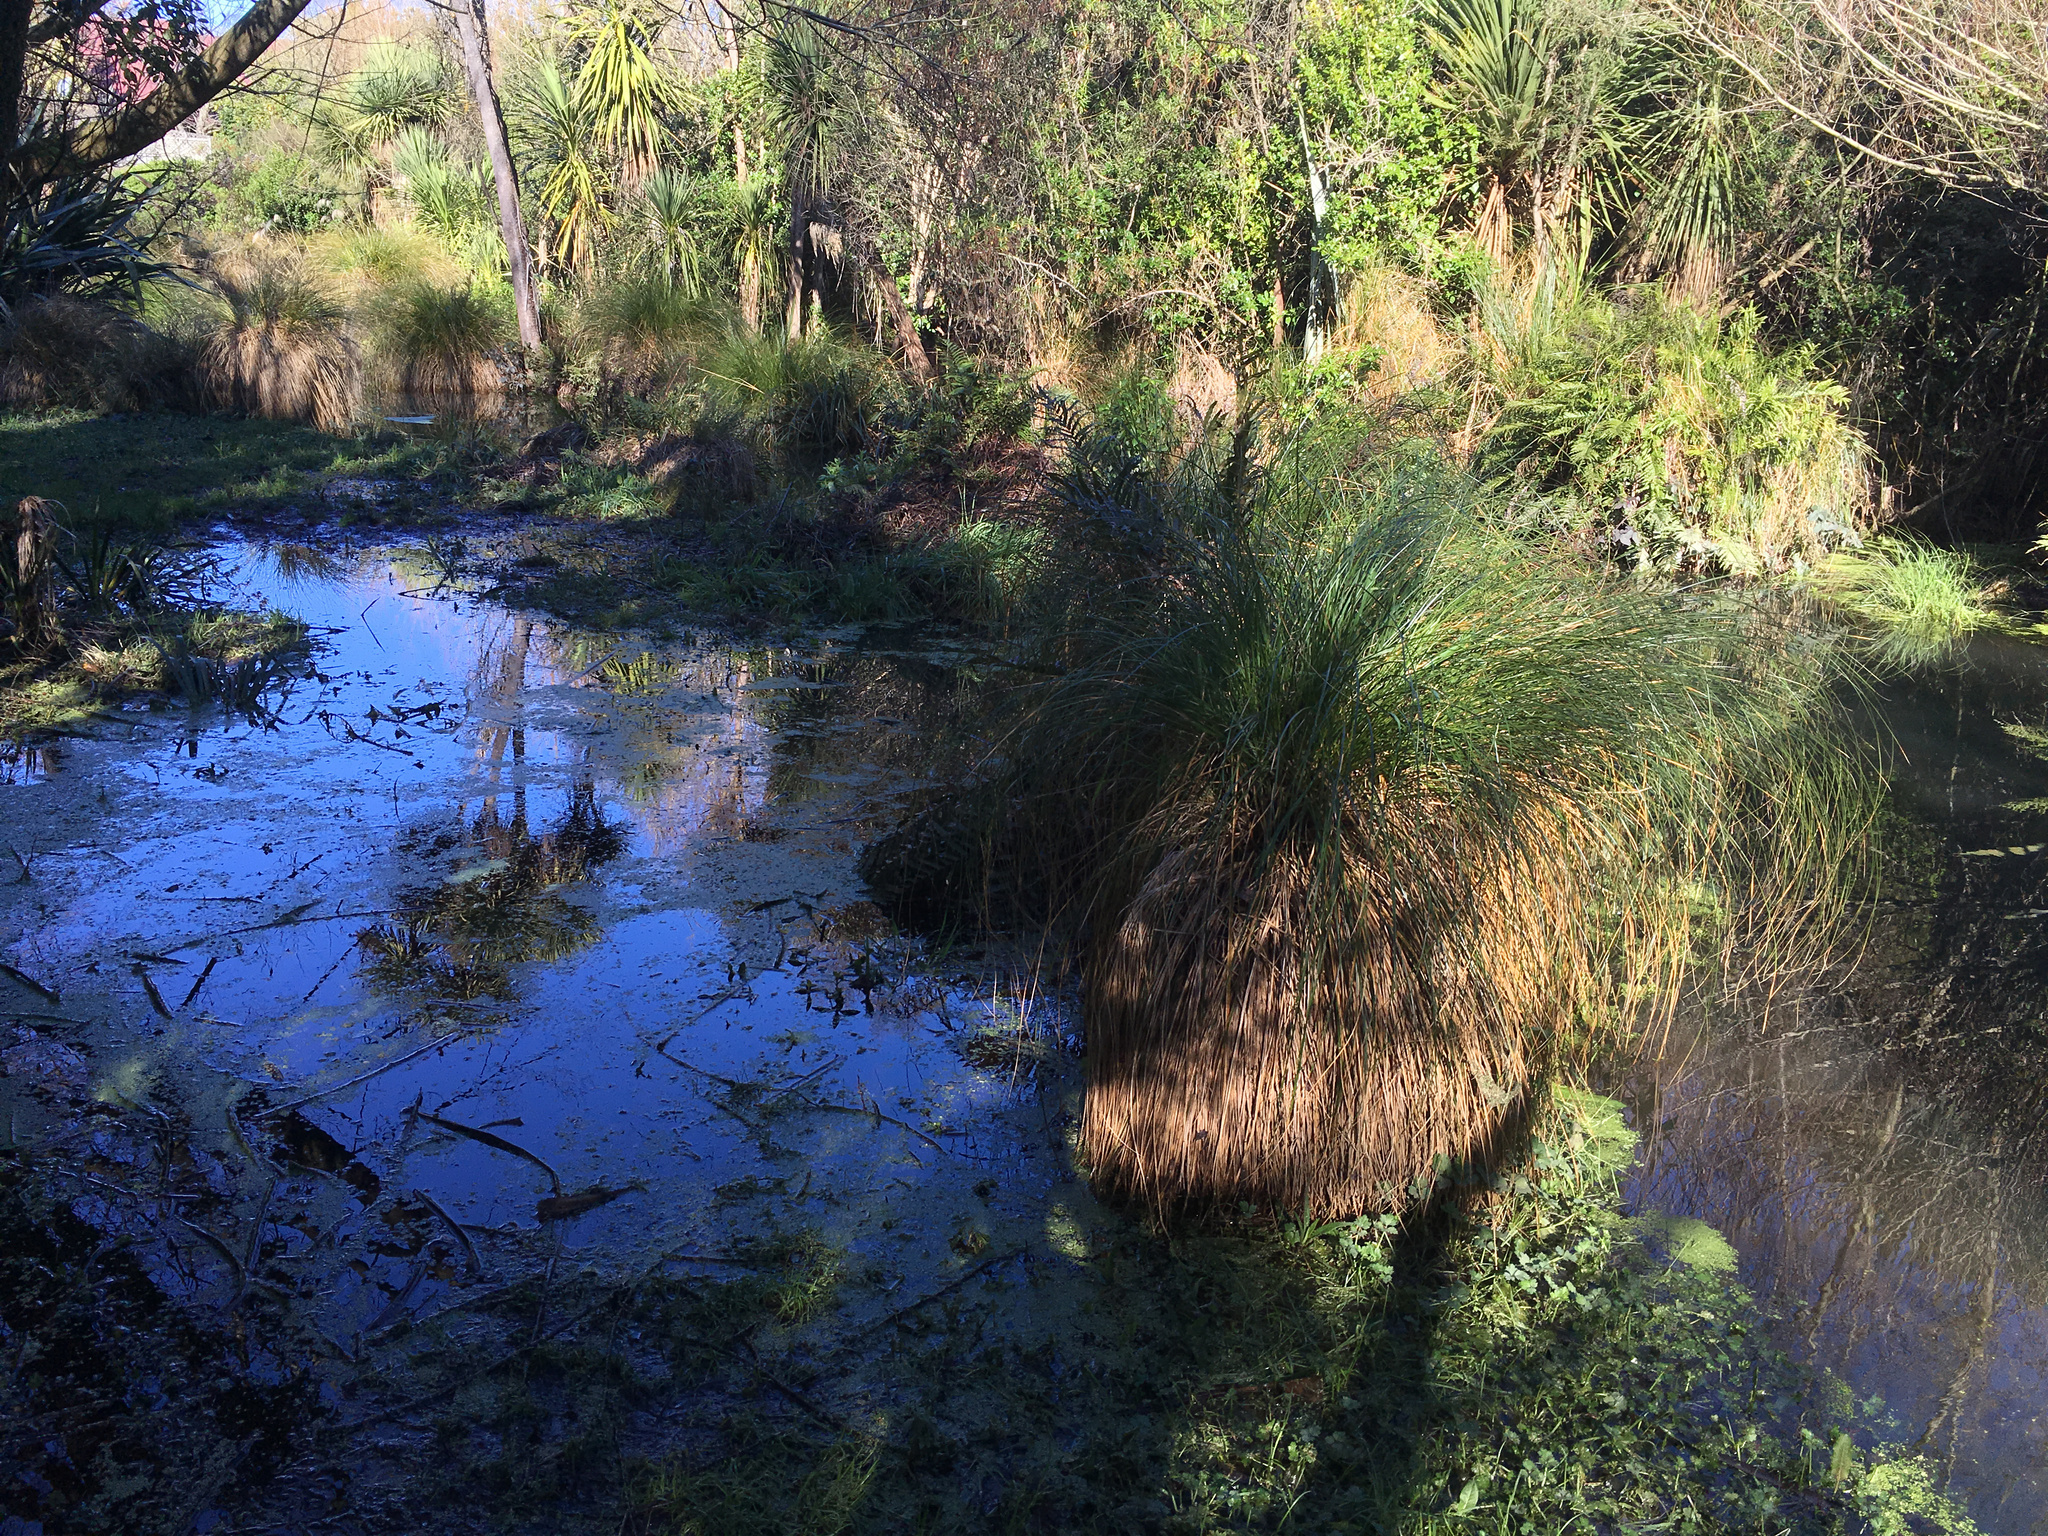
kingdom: Plantae
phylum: Tracheophyta
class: Liliopsida
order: Poales
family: Cyperaceae
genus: Carex
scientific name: Carex secta
